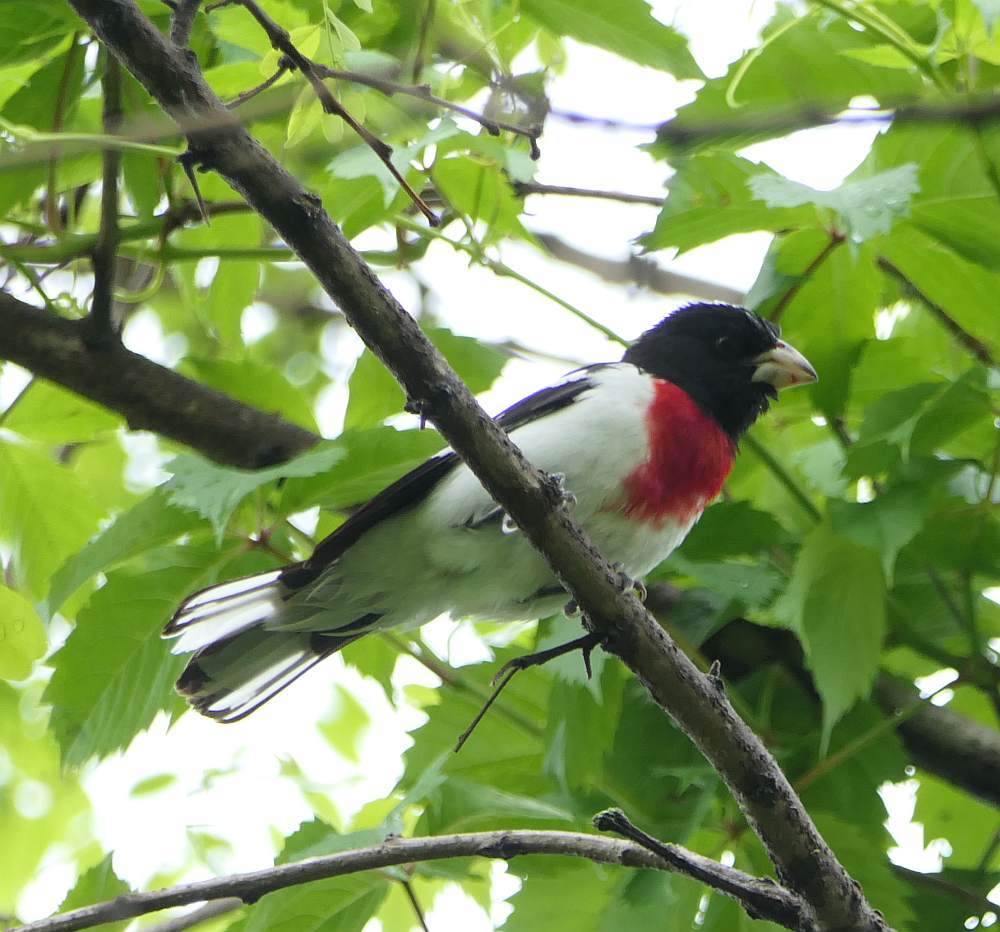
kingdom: Animalia
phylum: Chordata
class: Aves
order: Passeriformes
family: Cardinalidae
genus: Pheucticus
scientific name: Pheucticus ludovicianus
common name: Rose-breasted grosbeak
